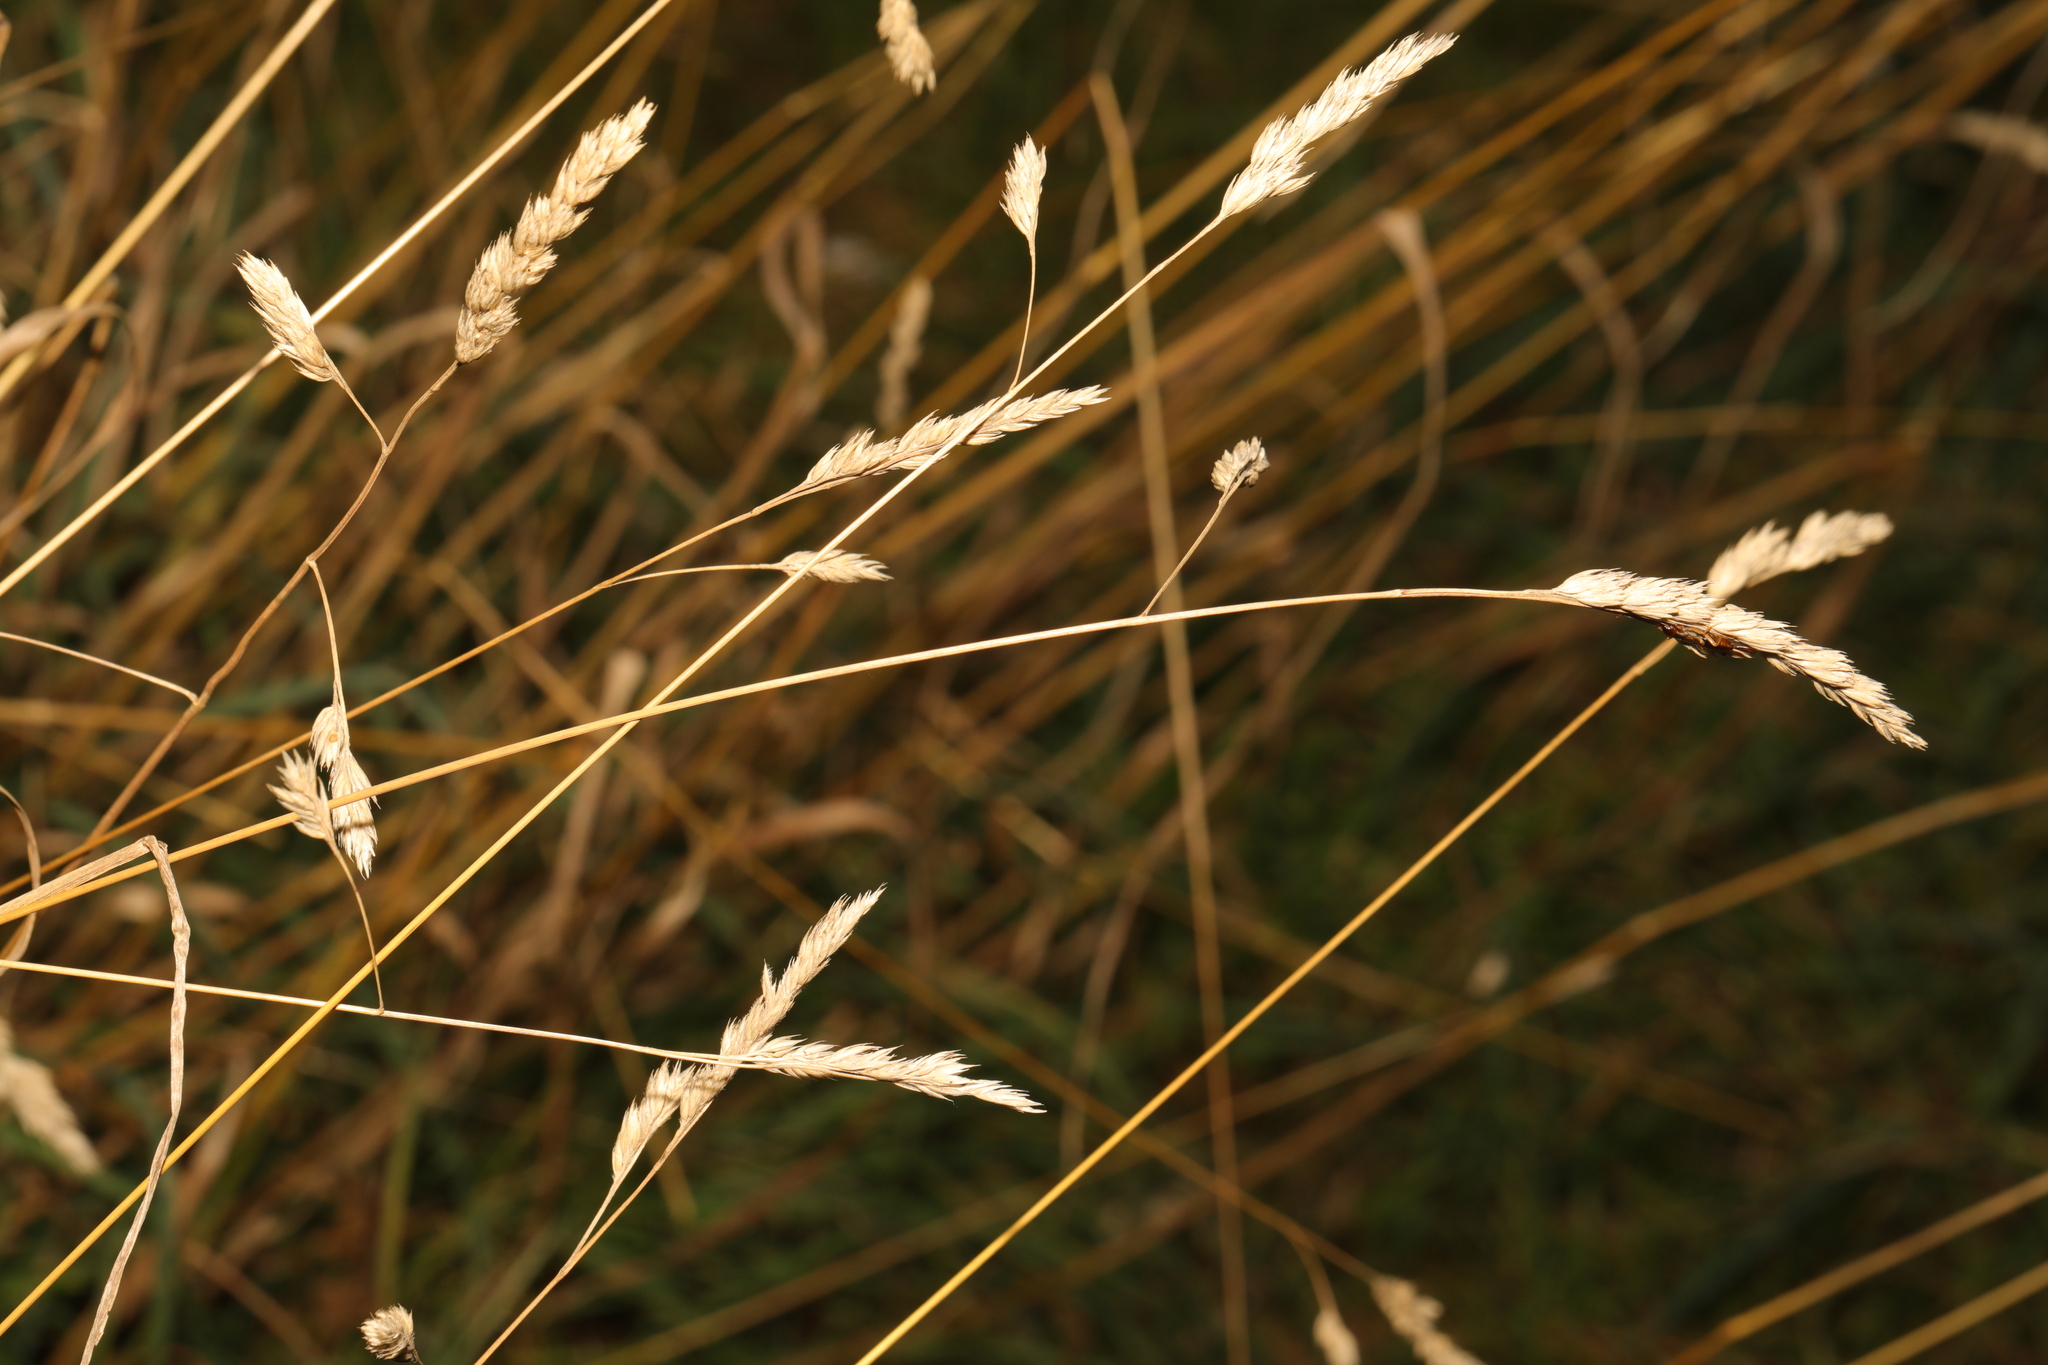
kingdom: Plantae
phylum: Tracheophyta
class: Liliopsida
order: Poales
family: Poaceae
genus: Dactylis
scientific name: Dactylis glomerata
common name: Orchardgrass
